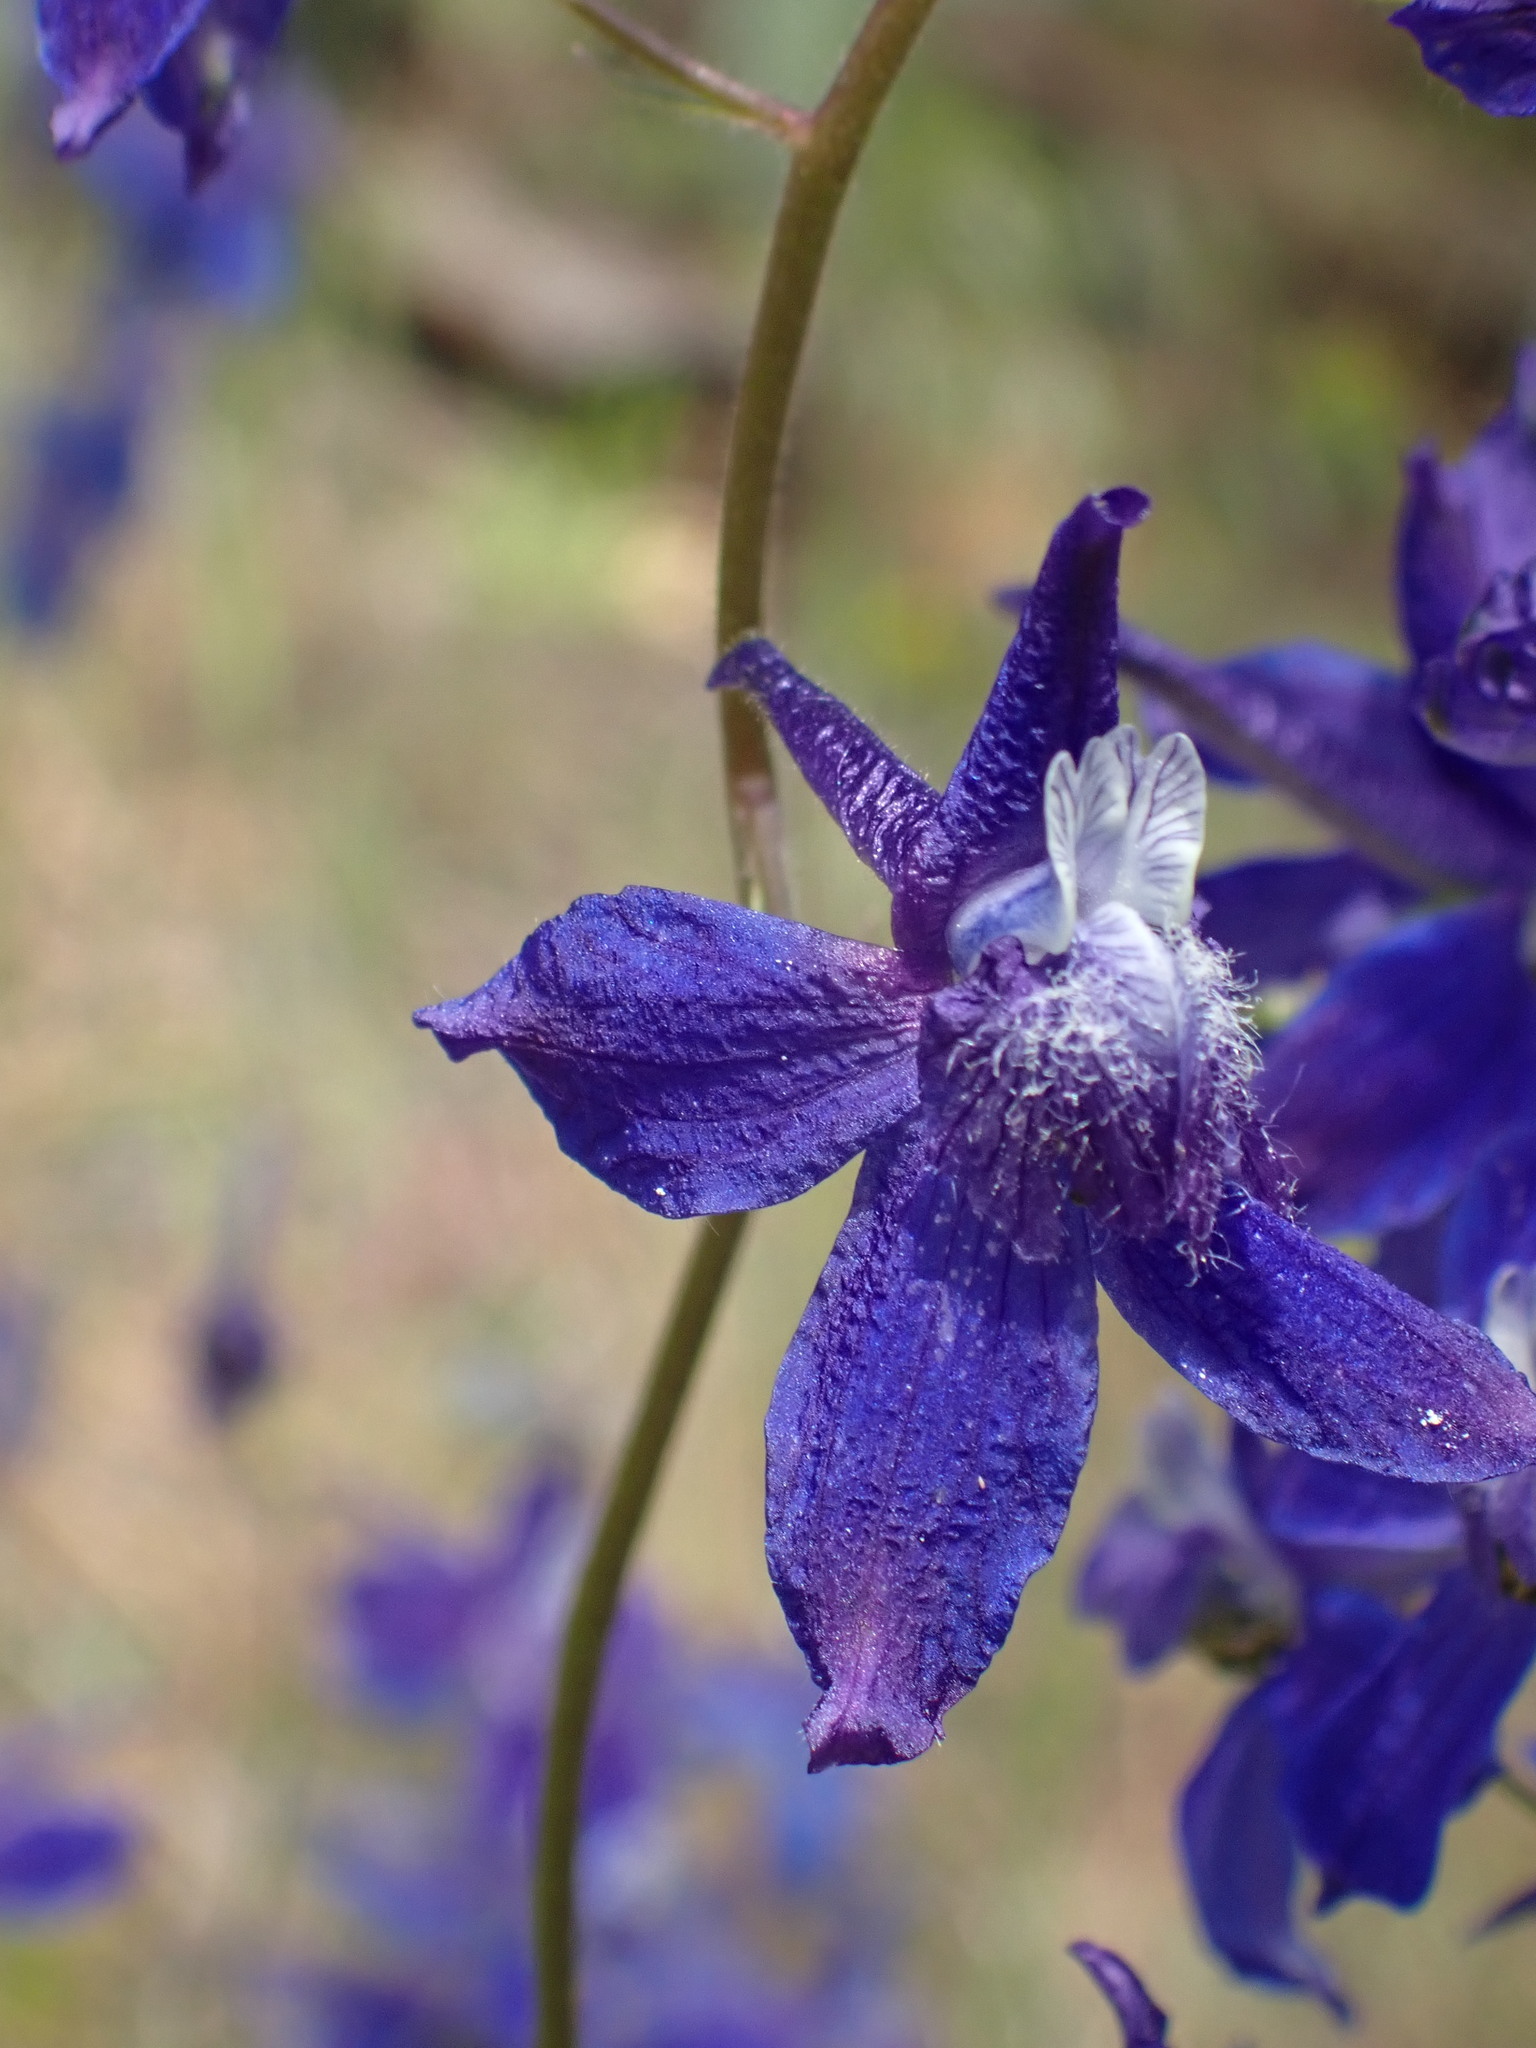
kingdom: Plantae
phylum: Tracheophyta
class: Magnoliopsida
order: Ranunculales
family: Ranunculaceae
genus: Delphinium
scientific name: Delphinium nuttallianum
